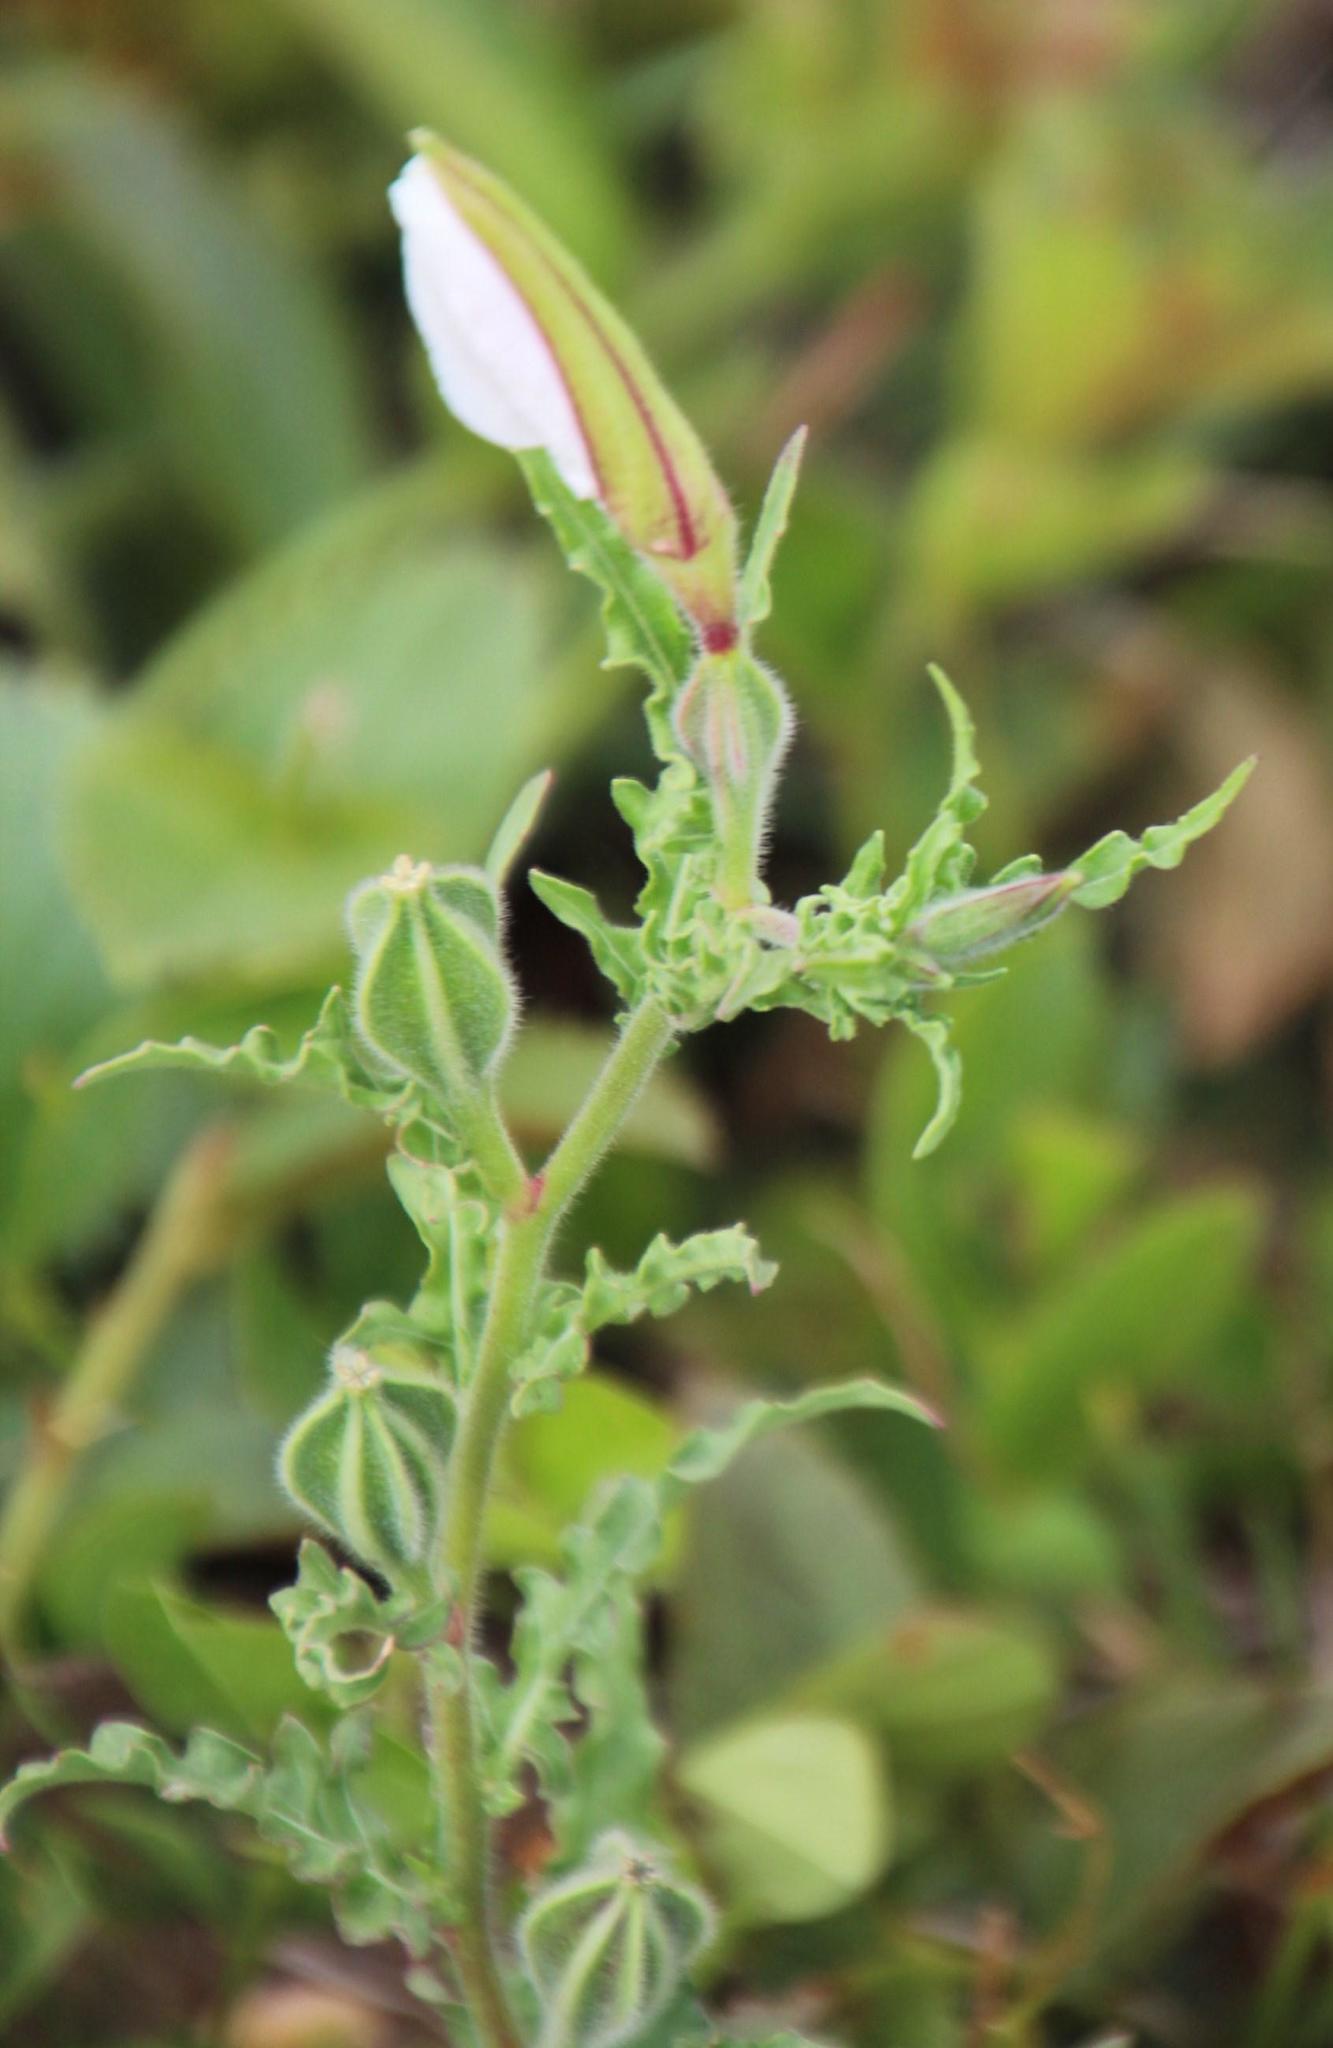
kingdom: Plantae
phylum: Tracheophyta
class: Magnoliopsida
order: Myrtales
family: Onagraceae
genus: Oenothera
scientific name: Oenothera tetraptera
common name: Four-wing evening-primrose
